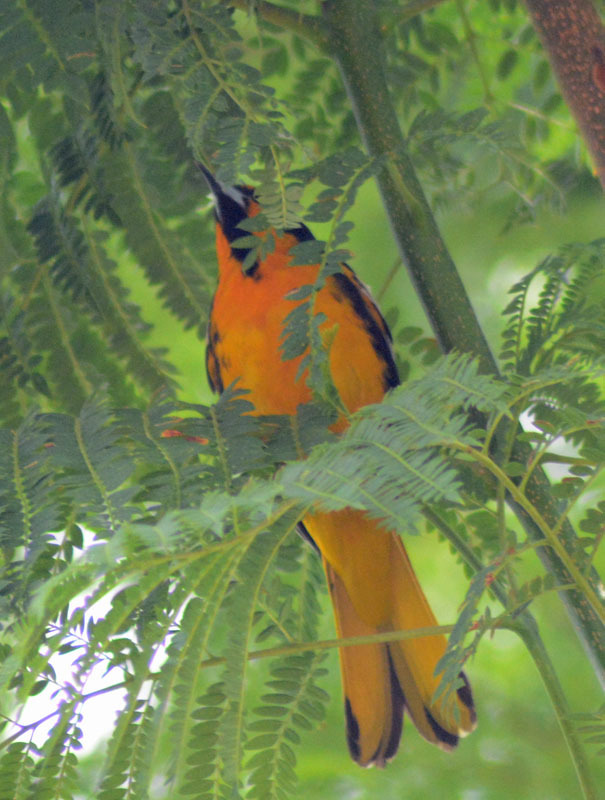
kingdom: Animalia
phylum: Chordata
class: Aves
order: Passeriformes
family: Icteridae
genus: Icterus
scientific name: Icterus abeillei
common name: Black-backed oriole
